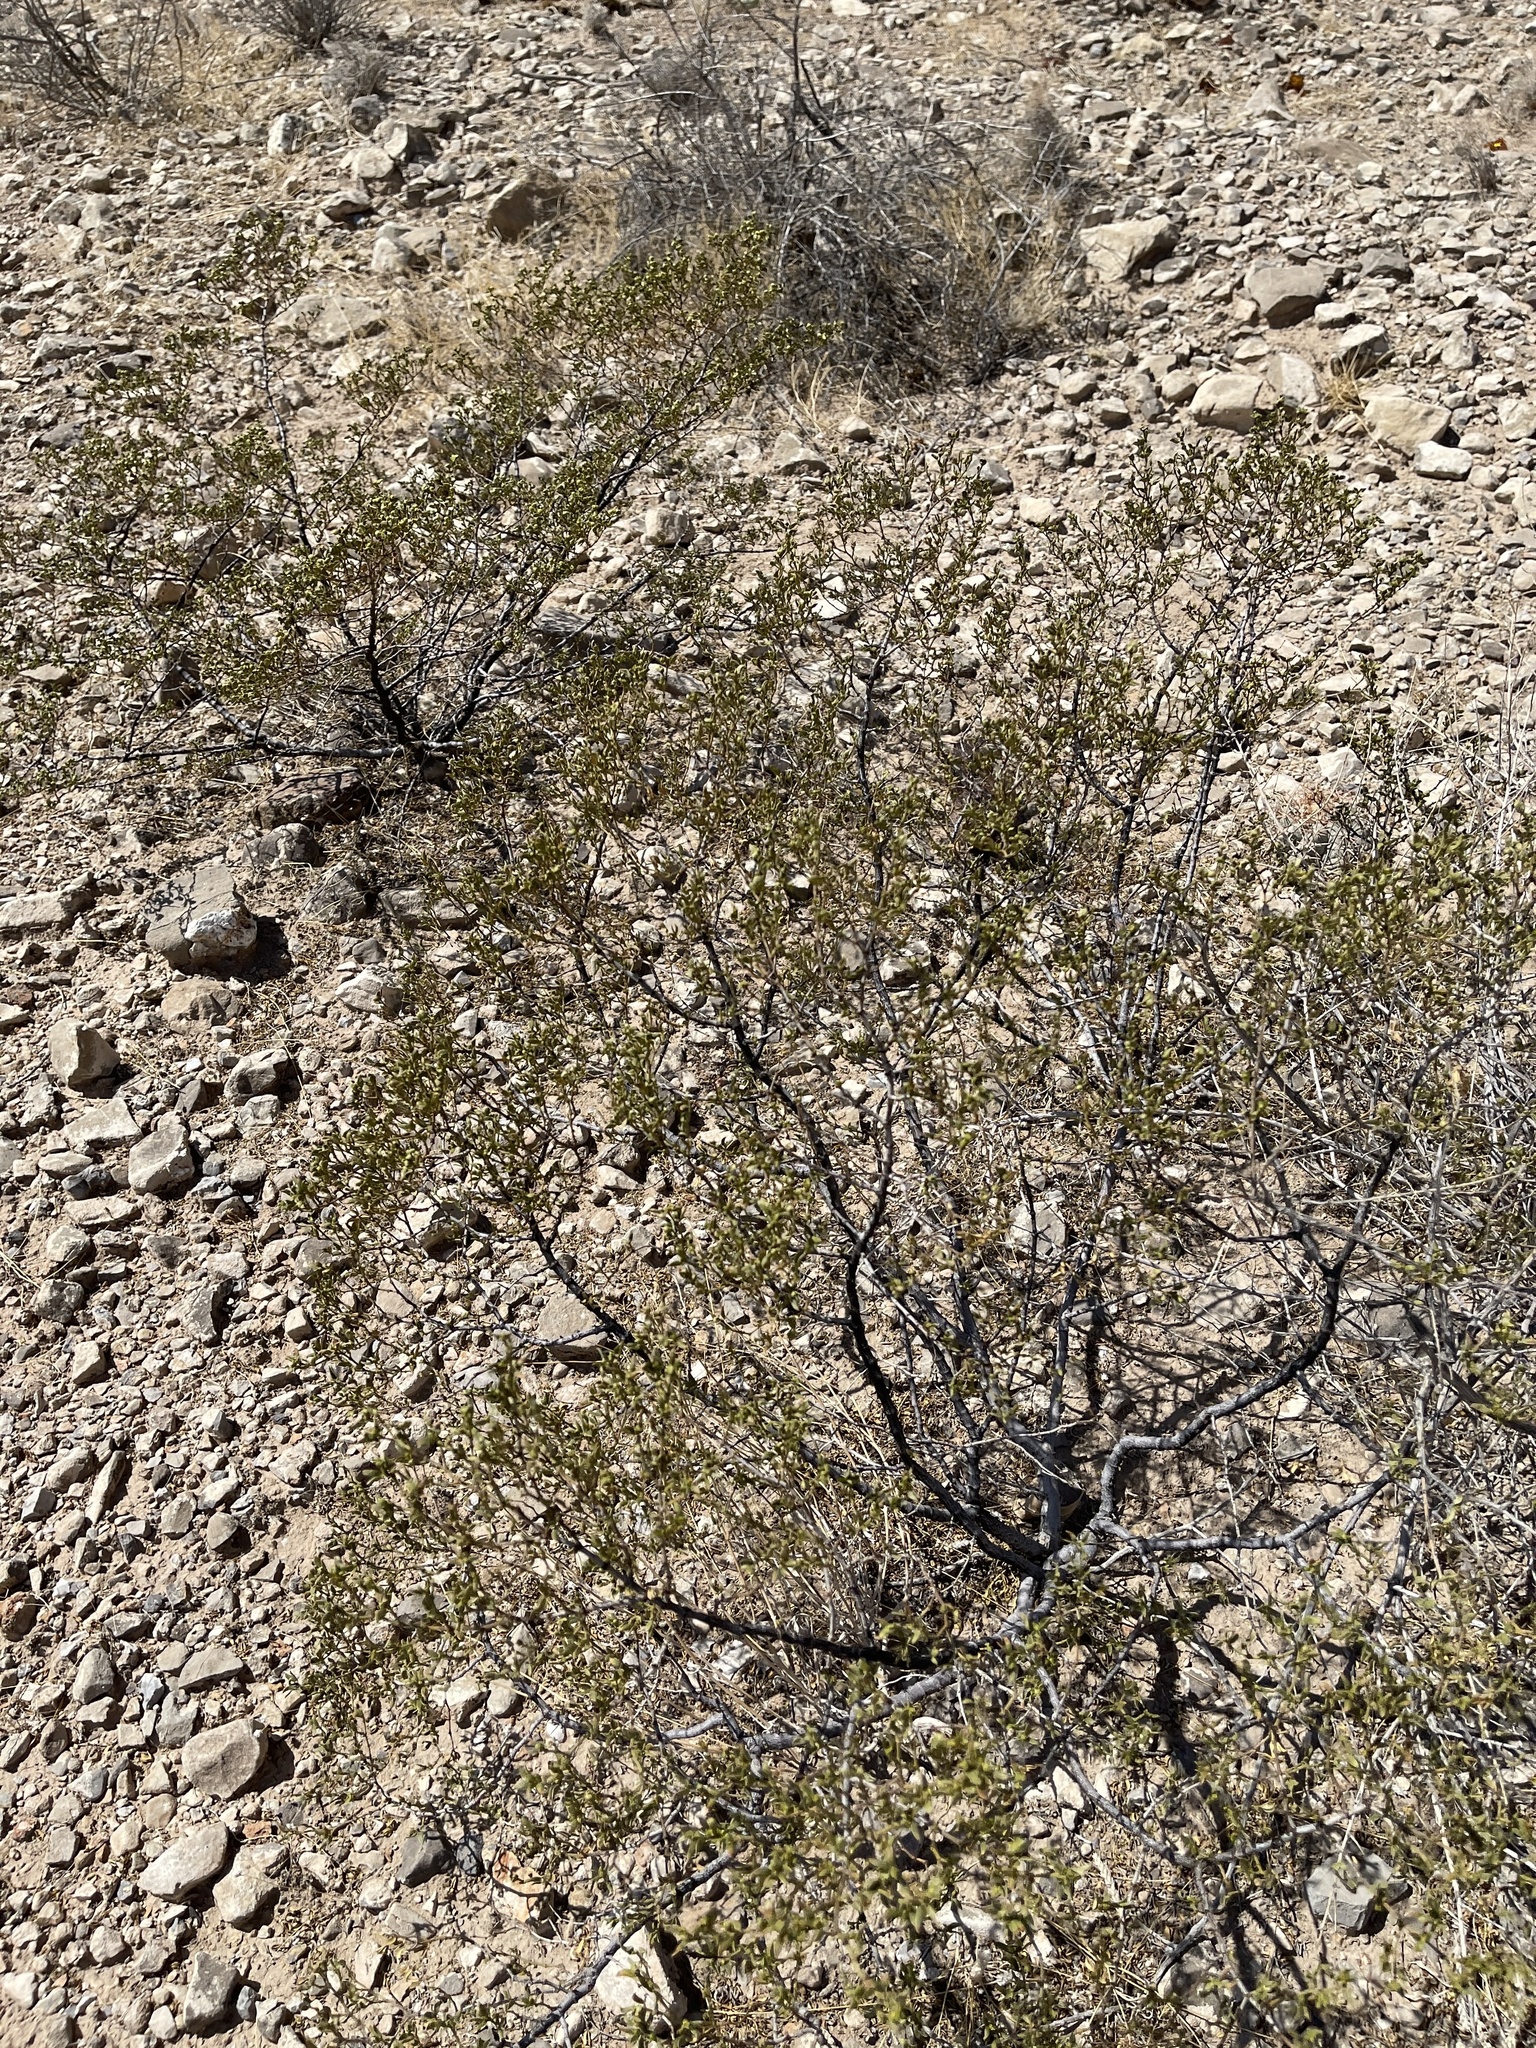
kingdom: Plantae
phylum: Tracheophyta
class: Magnoliopsida
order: Zygophyllales
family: Zygophyllaceae
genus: Larrea
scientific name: Larrea tridentata
